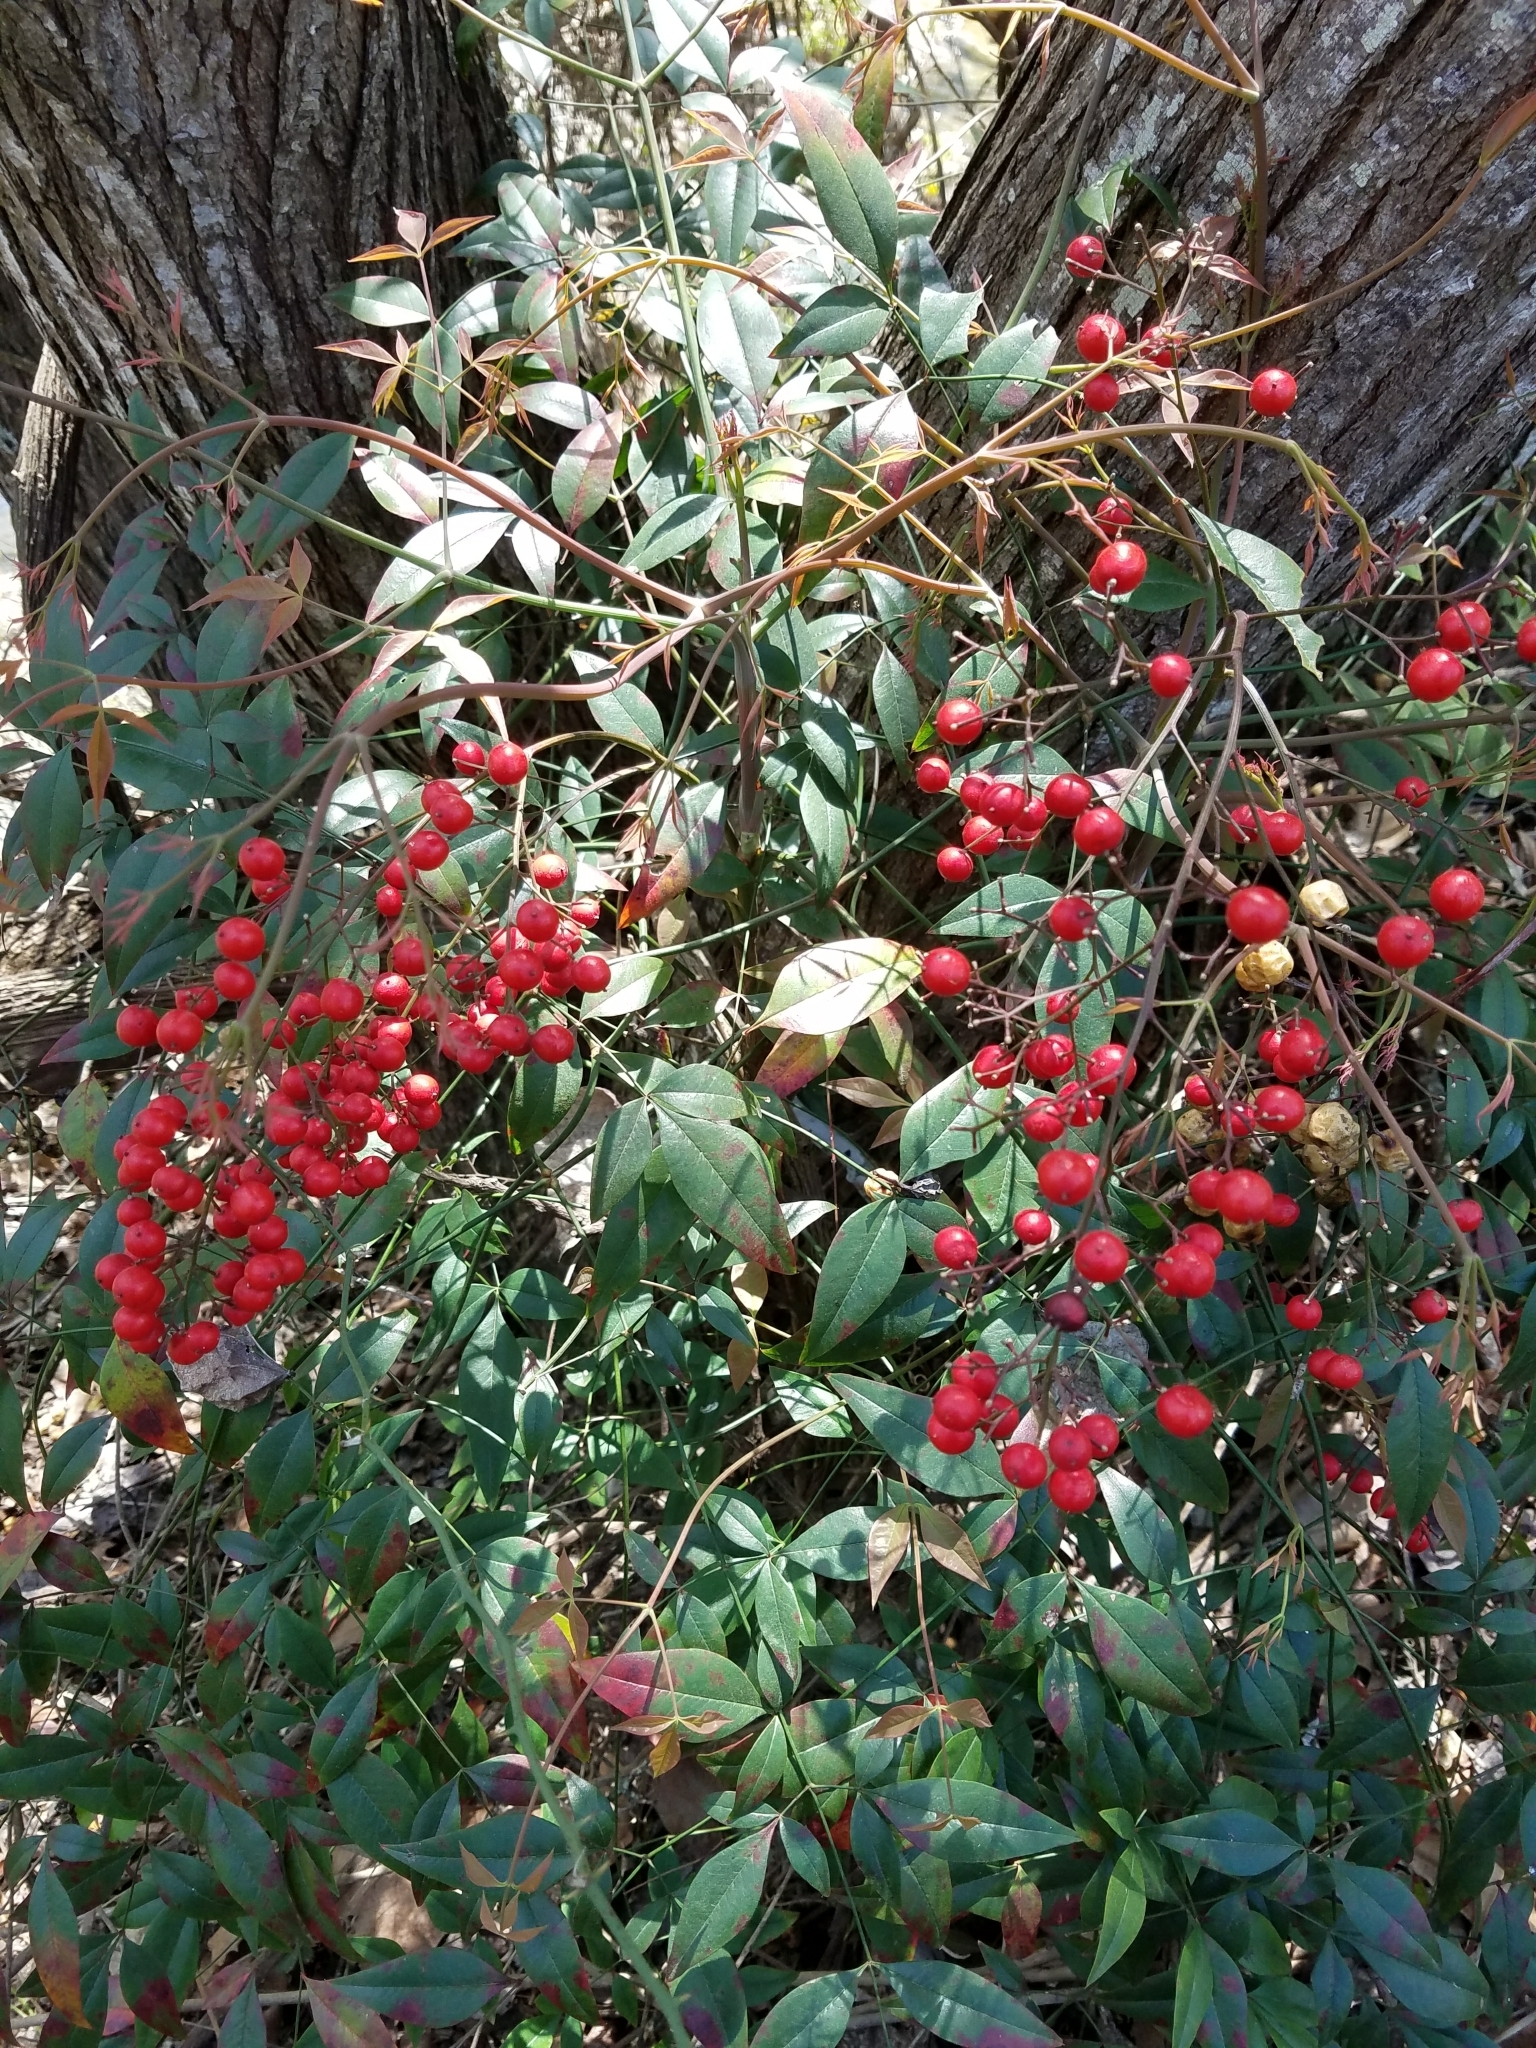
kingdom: Plantae
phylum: Tracheophyta
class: Magnoliopsida
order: Ranunculales
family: Berberidaceae
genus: Nandina
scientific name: Nandina domestica
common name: Sacred bamboo
